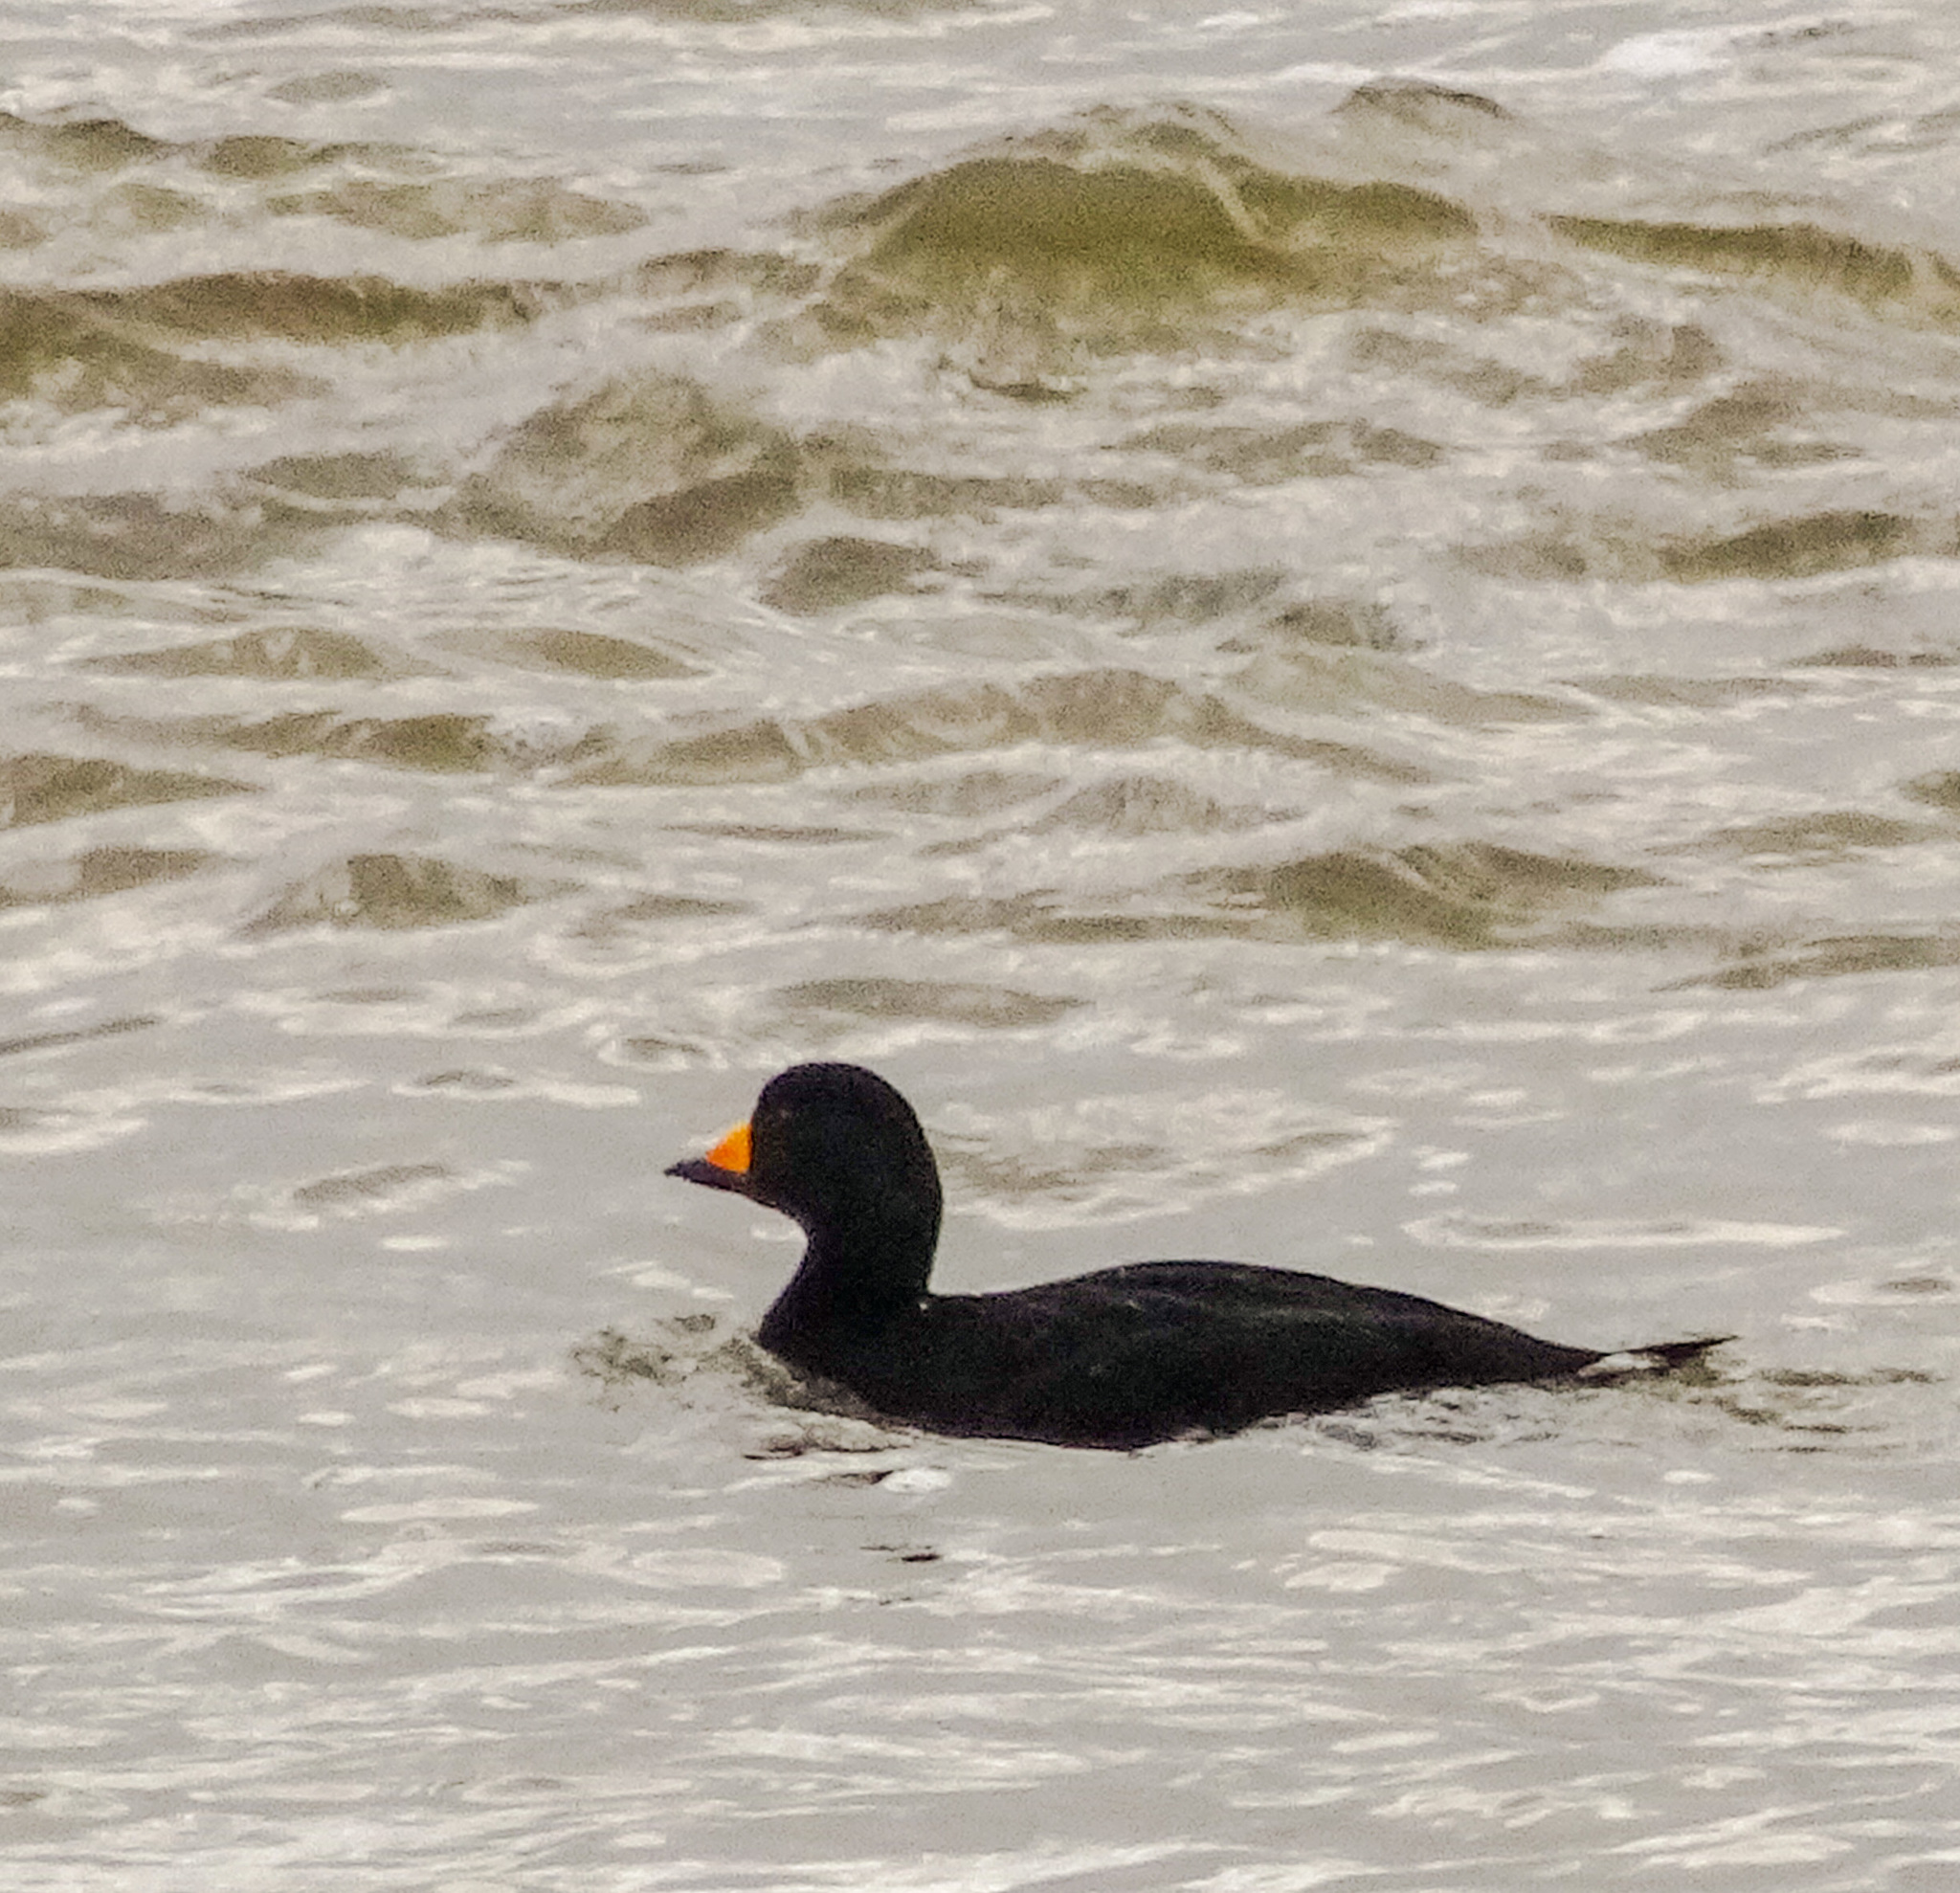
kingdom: Animalia
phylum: Chordata
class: Aves
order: Anseriformes
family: Anatidae
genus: Melanitta
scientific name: Melanitta americana
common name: Black scoter
